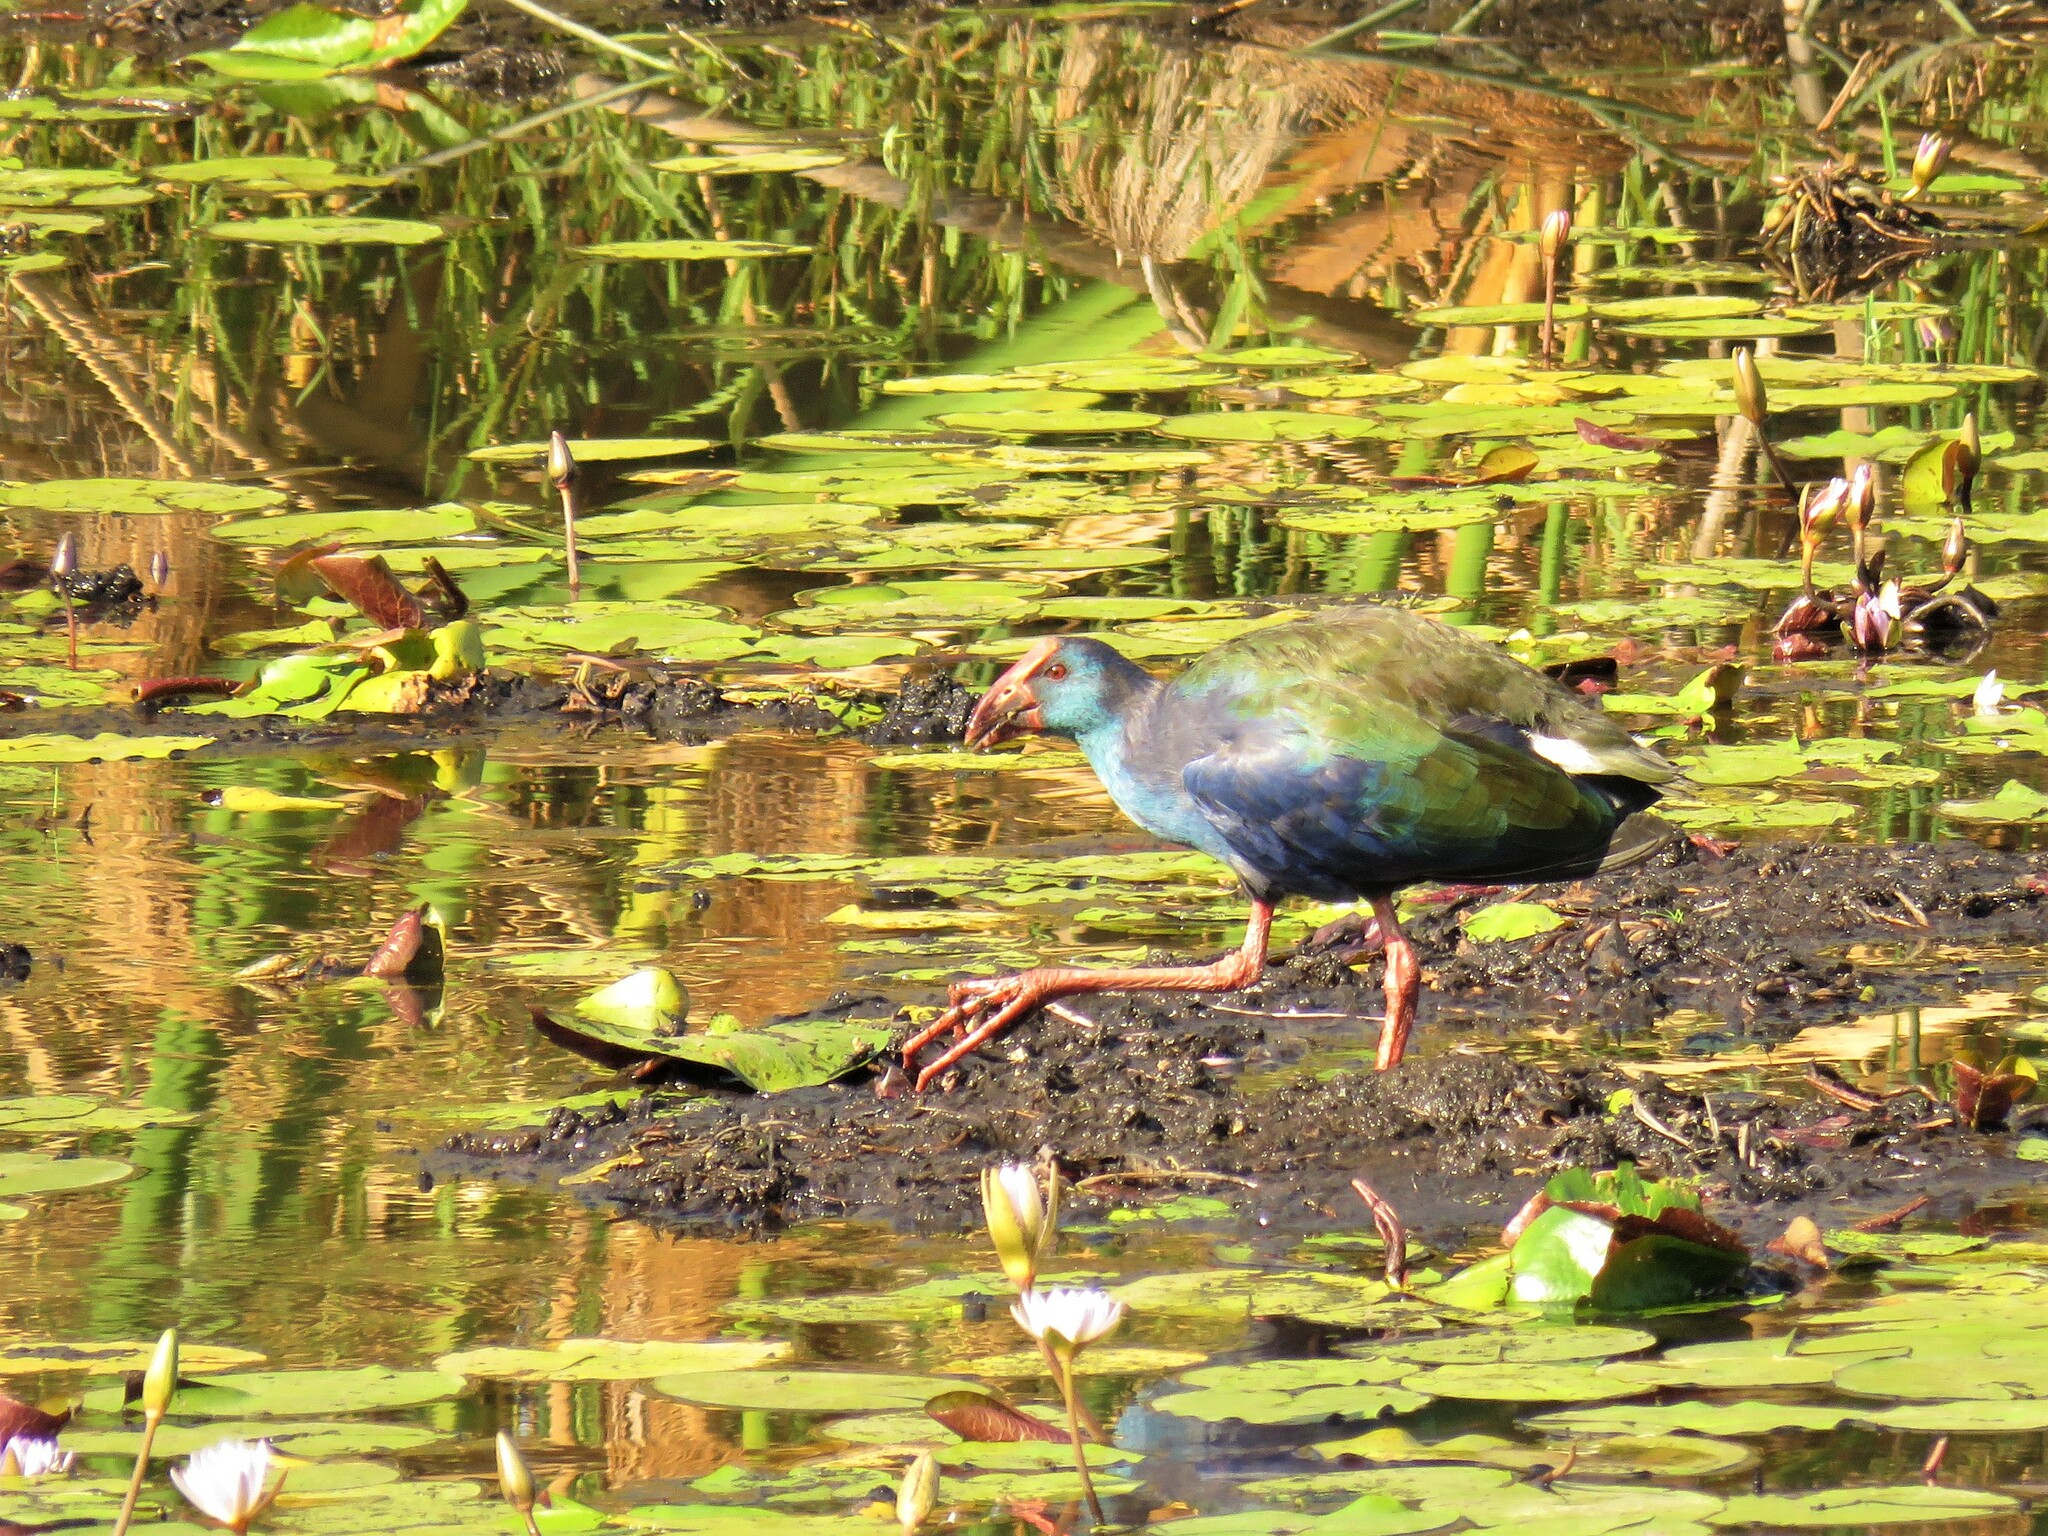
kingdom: Animalia
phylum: Chordata
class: Aves
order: Gruiformes
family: Rallidae
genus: Porphyrio
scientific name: Porphyrio porphyrio
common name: Purple swamphen
